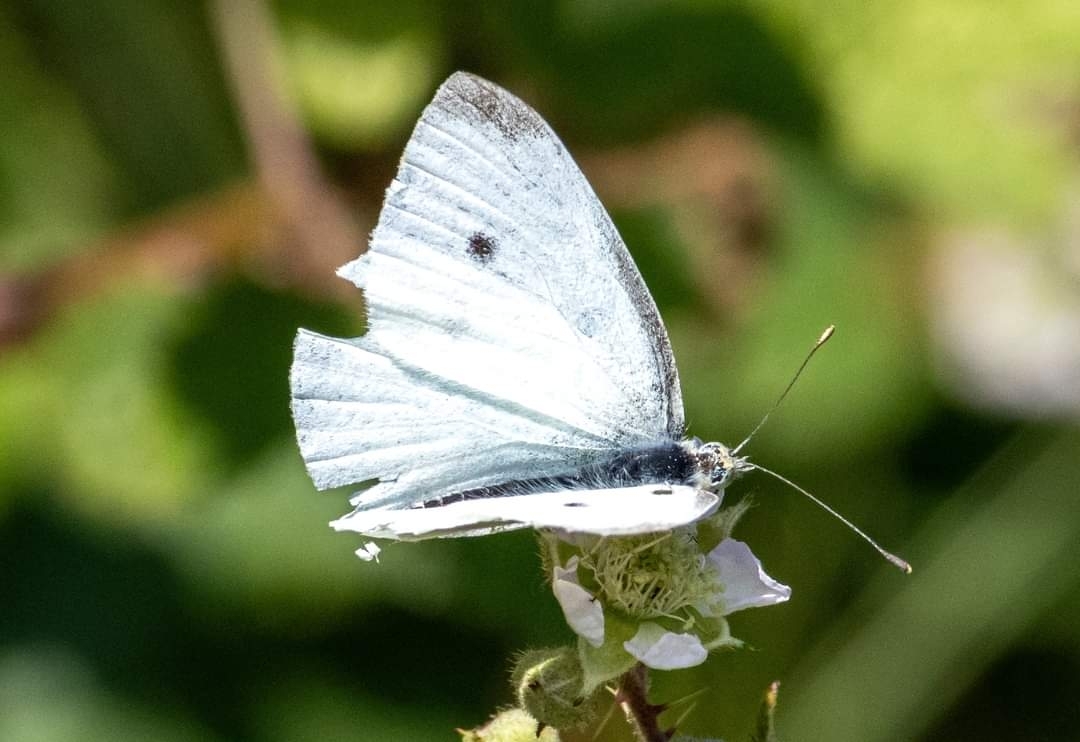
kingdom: Animalia
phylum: Arthropoda
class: Insecta
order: Lepidoptera
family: Pieridae
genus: Pieris
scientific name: Pieris rapae
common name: Small white
